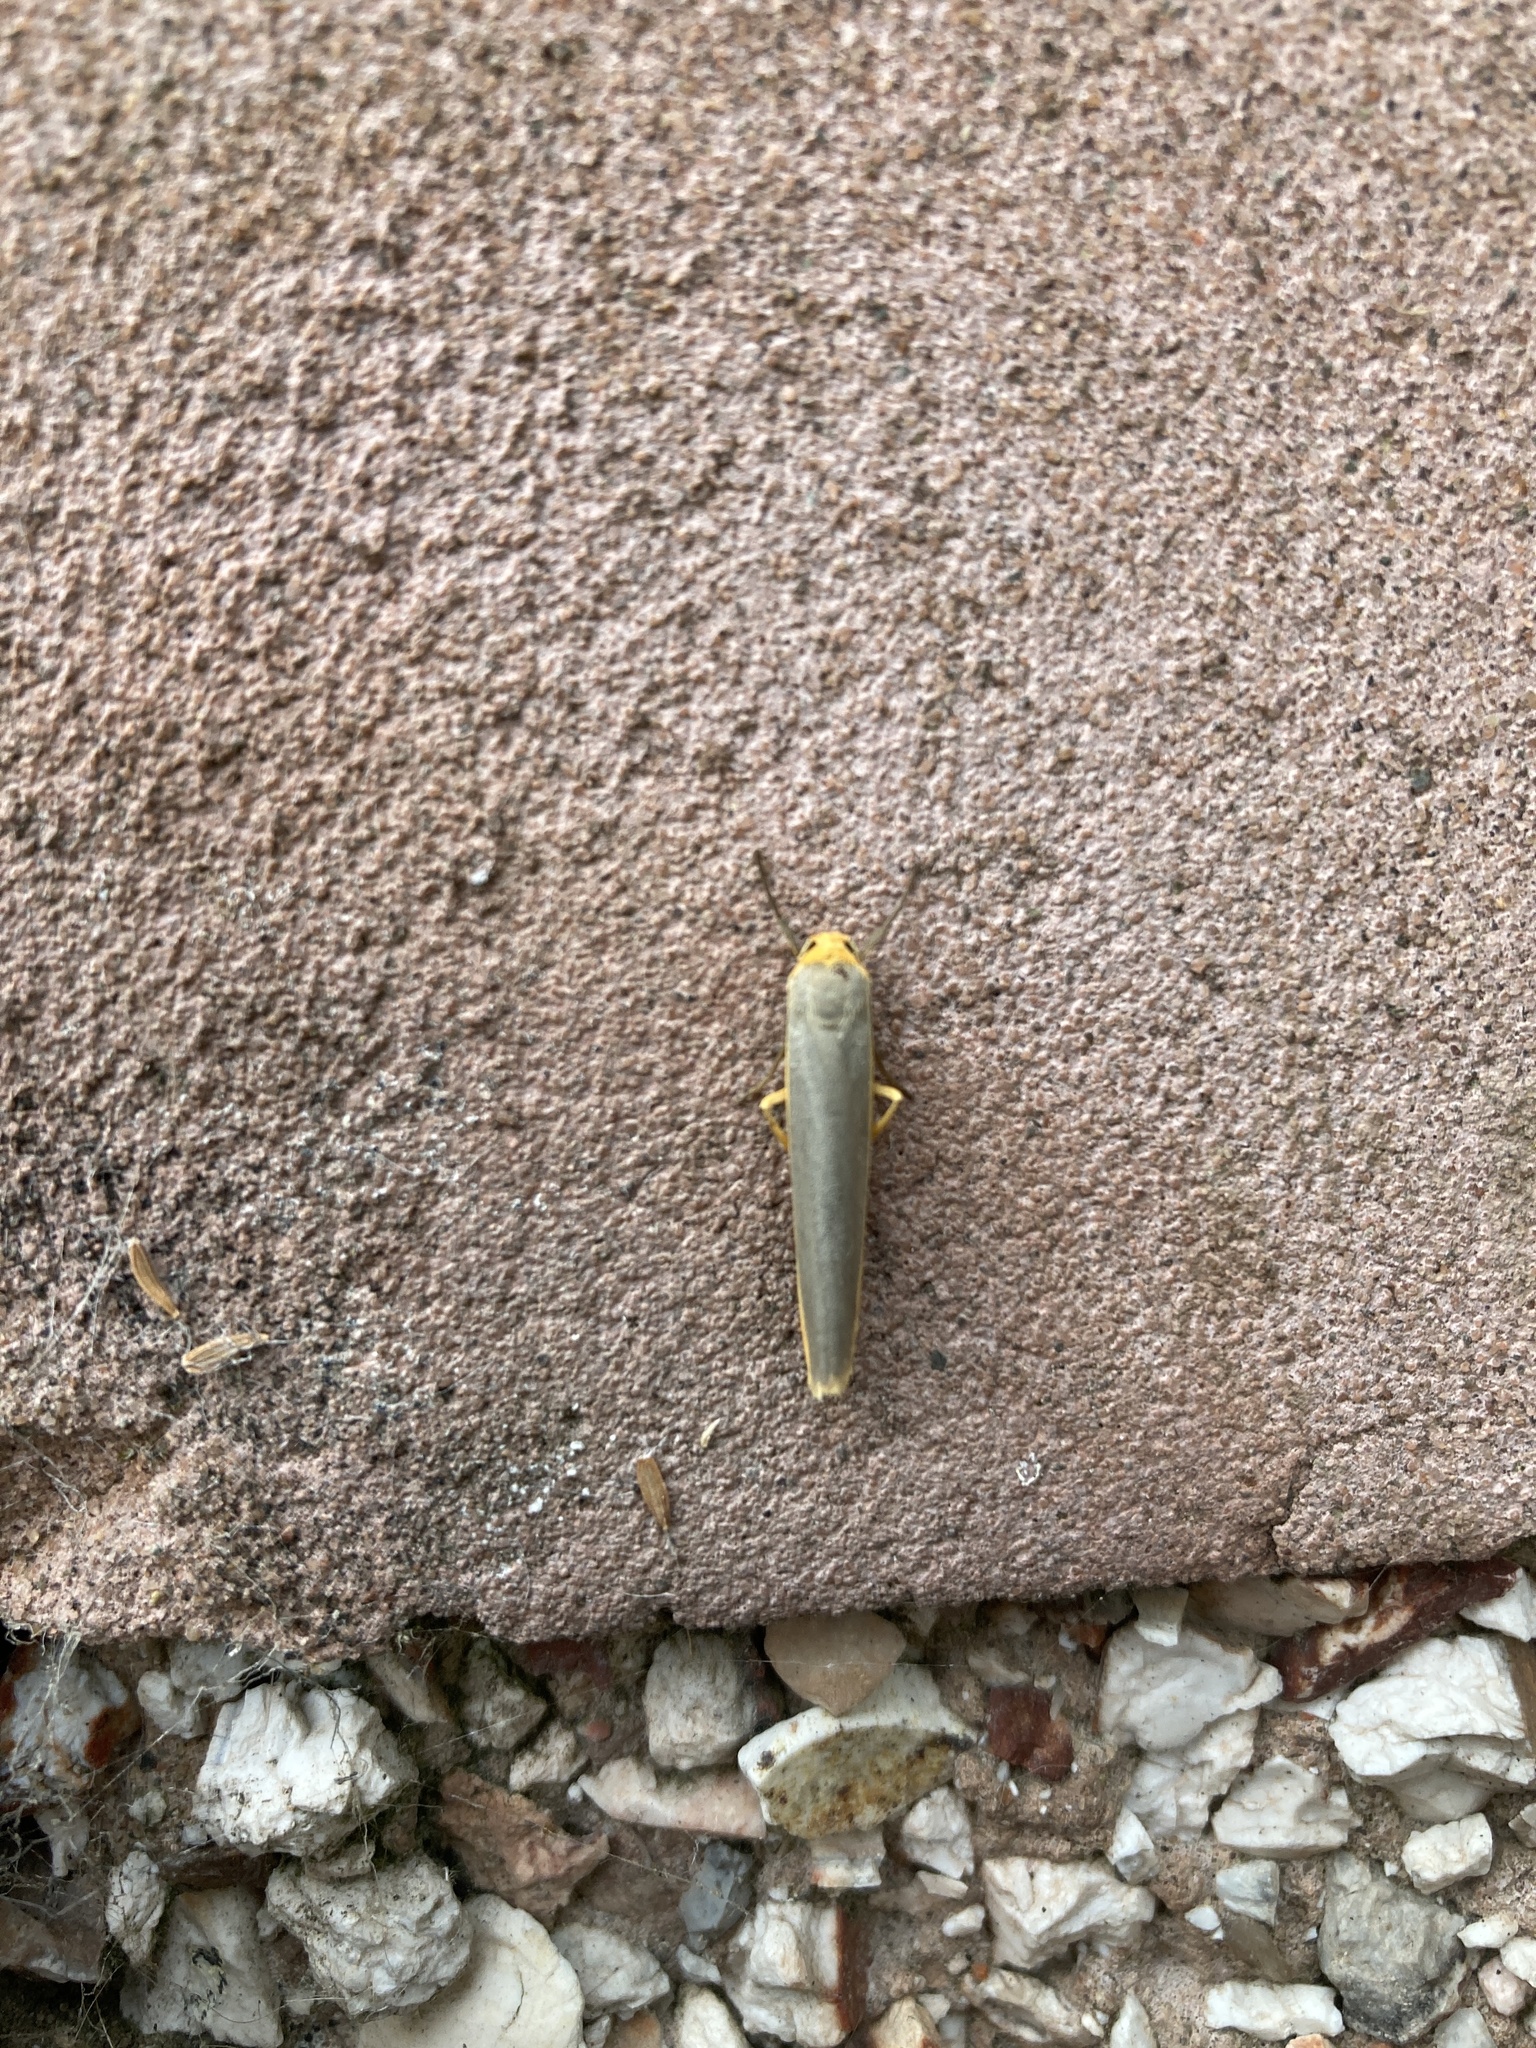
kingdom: Animalia
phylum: Arthropoda
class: Insecta
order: Lepidoptera
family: Erebidae
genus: Manulea
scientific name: Manulea complana
